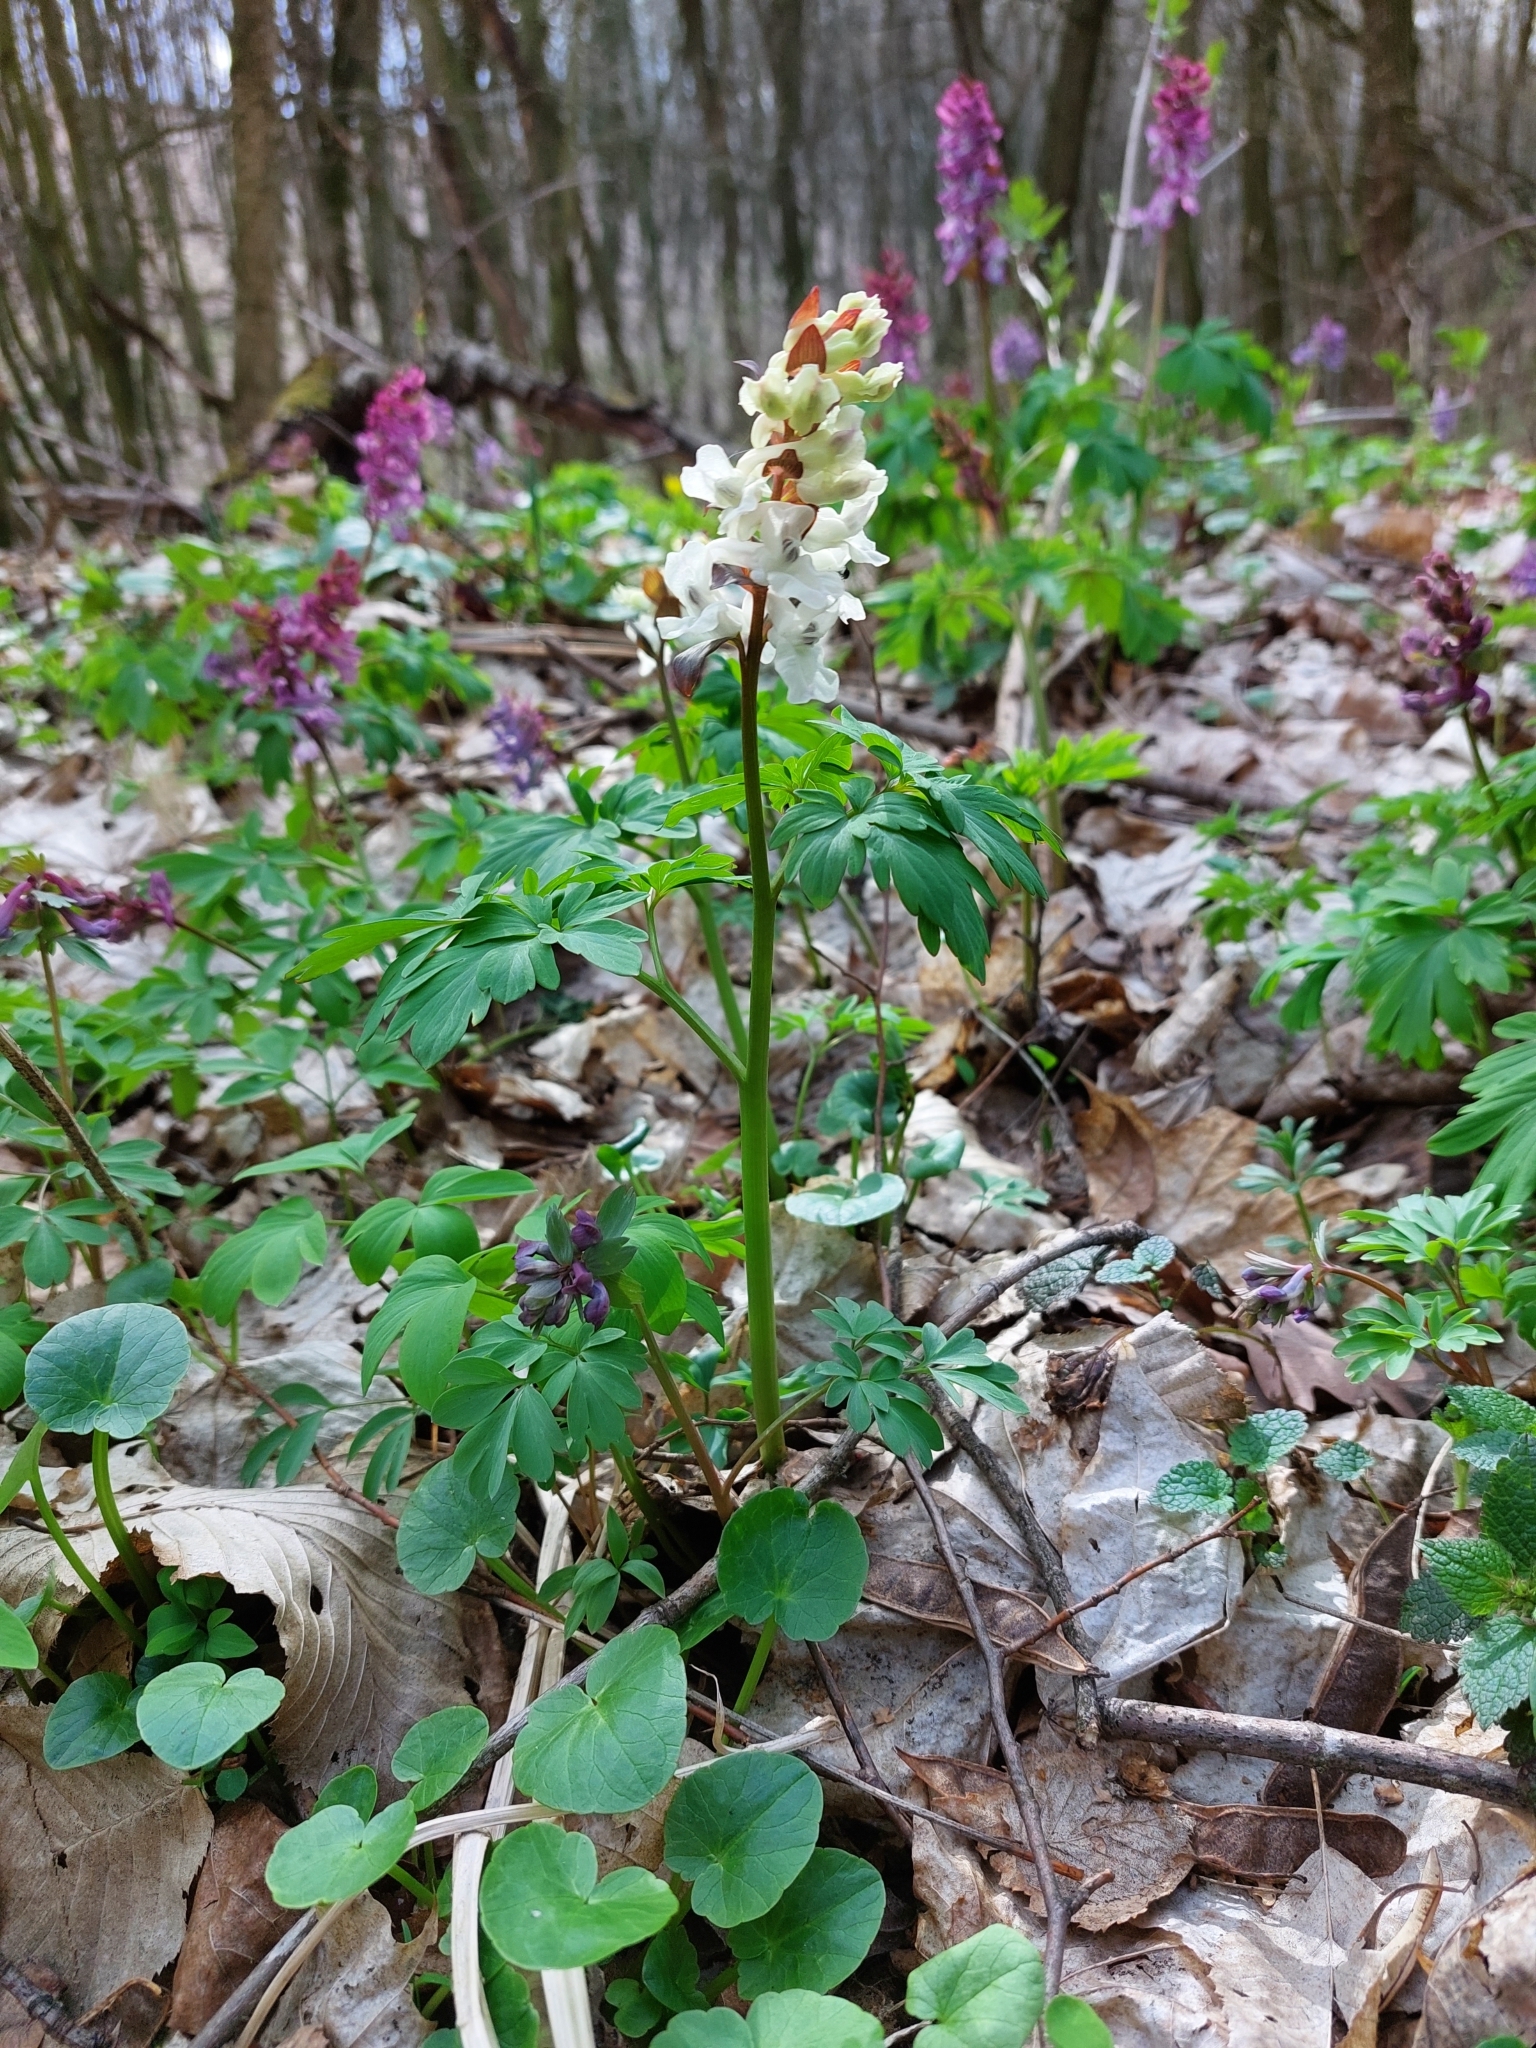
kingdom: Plantae
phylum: Tracheophyta
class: Magnoliopsida
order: Ranunculales
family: Papaveraceae
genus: Corydalis
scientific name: Corydalis cava
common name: Hollowroot
